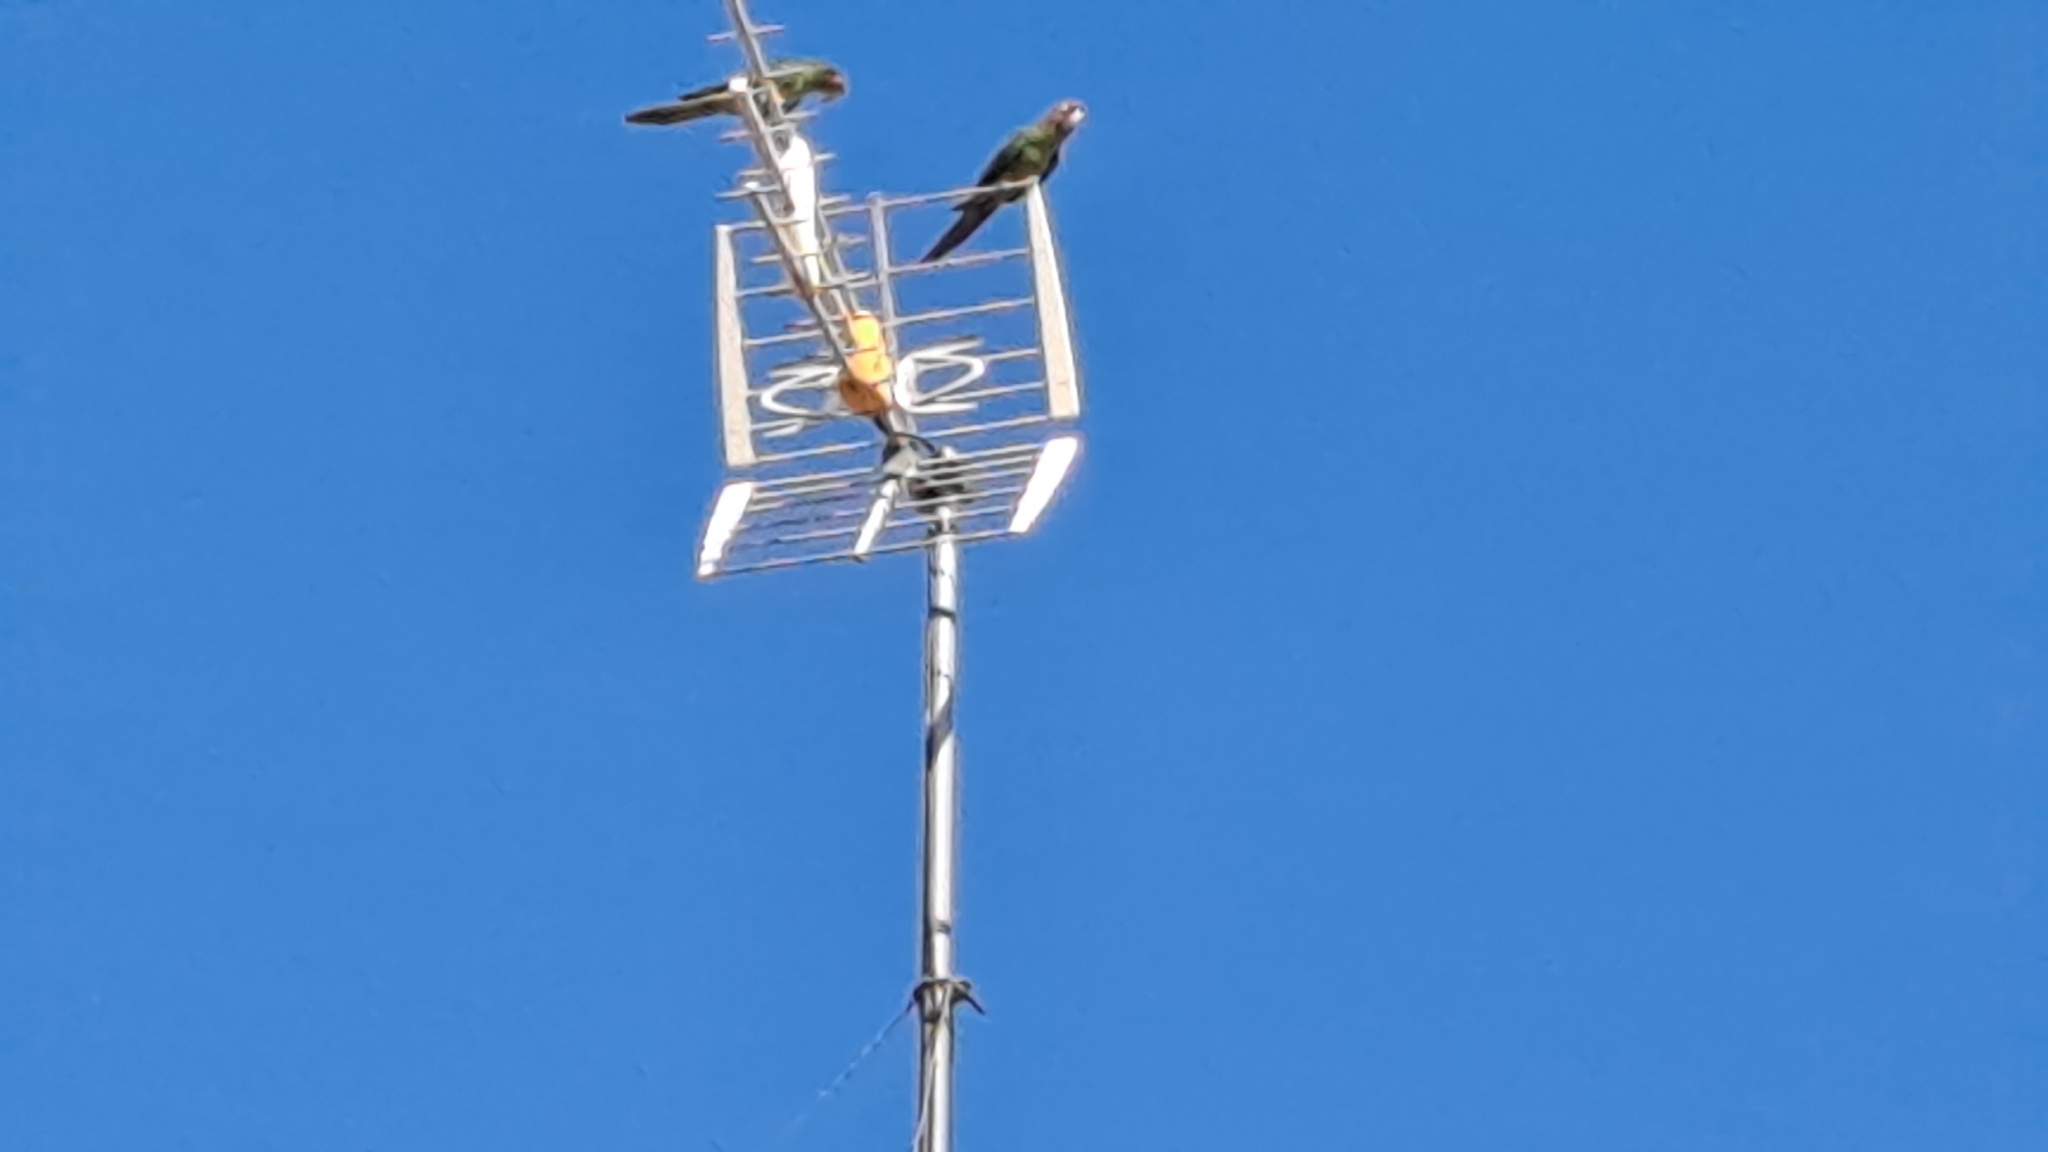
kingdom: Animalia
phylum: Chordata
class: Aves
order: Psittaciformes
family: Psittacidae
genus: Aratinga
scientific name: Aratinga mitrata
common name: Mitred parakeet
